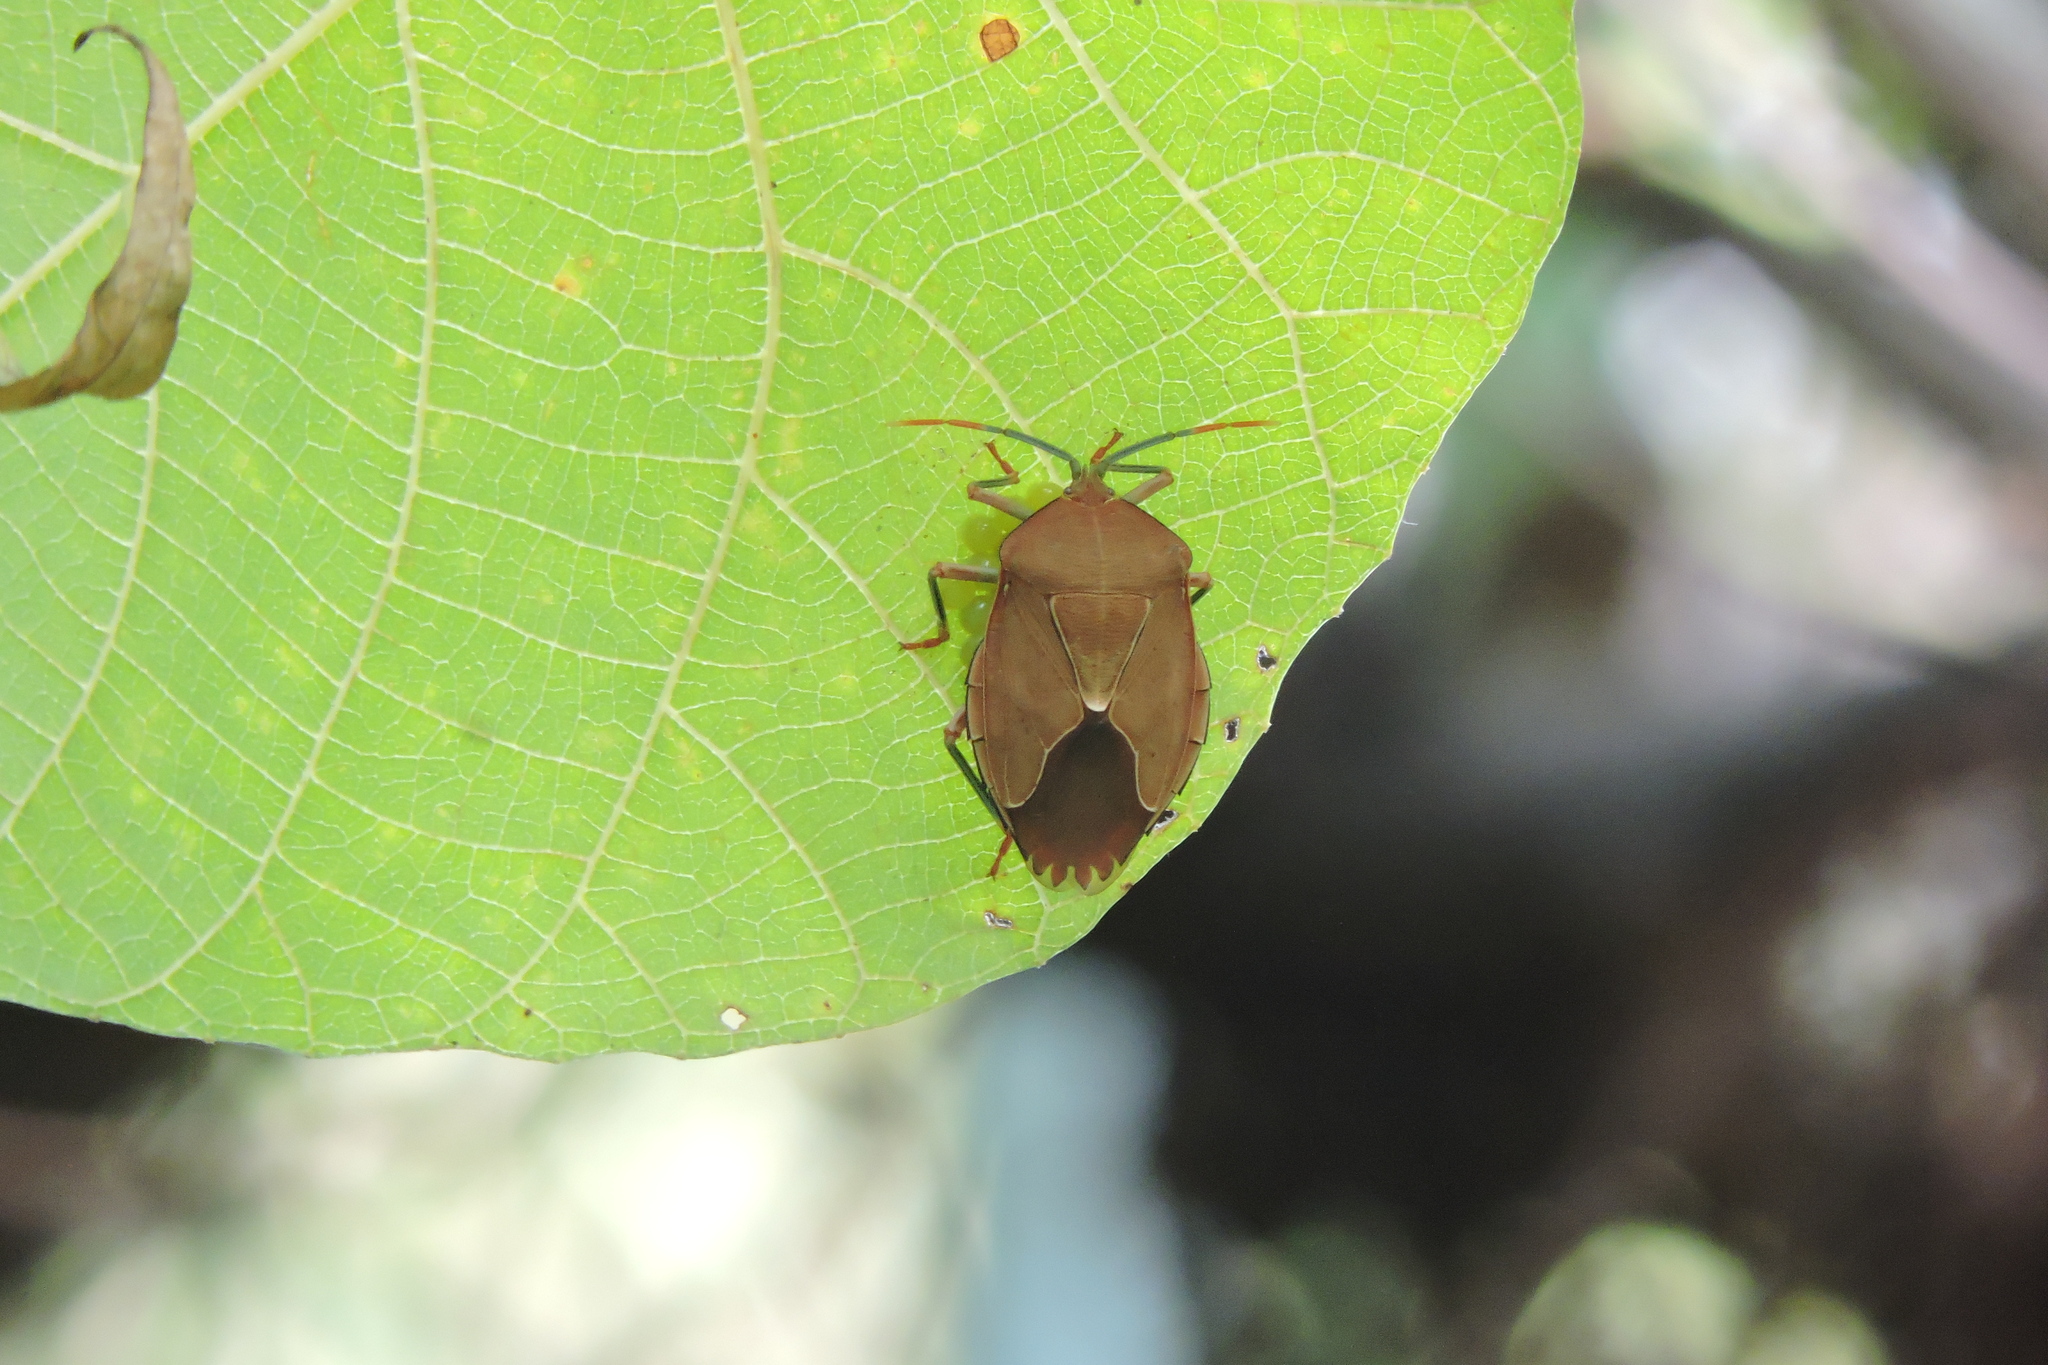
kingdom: Animalia
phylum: Arthropoda
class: Insecta
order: Hemiptera
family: Tessaratomidae
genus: Stilida
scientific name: Stilida indecora
